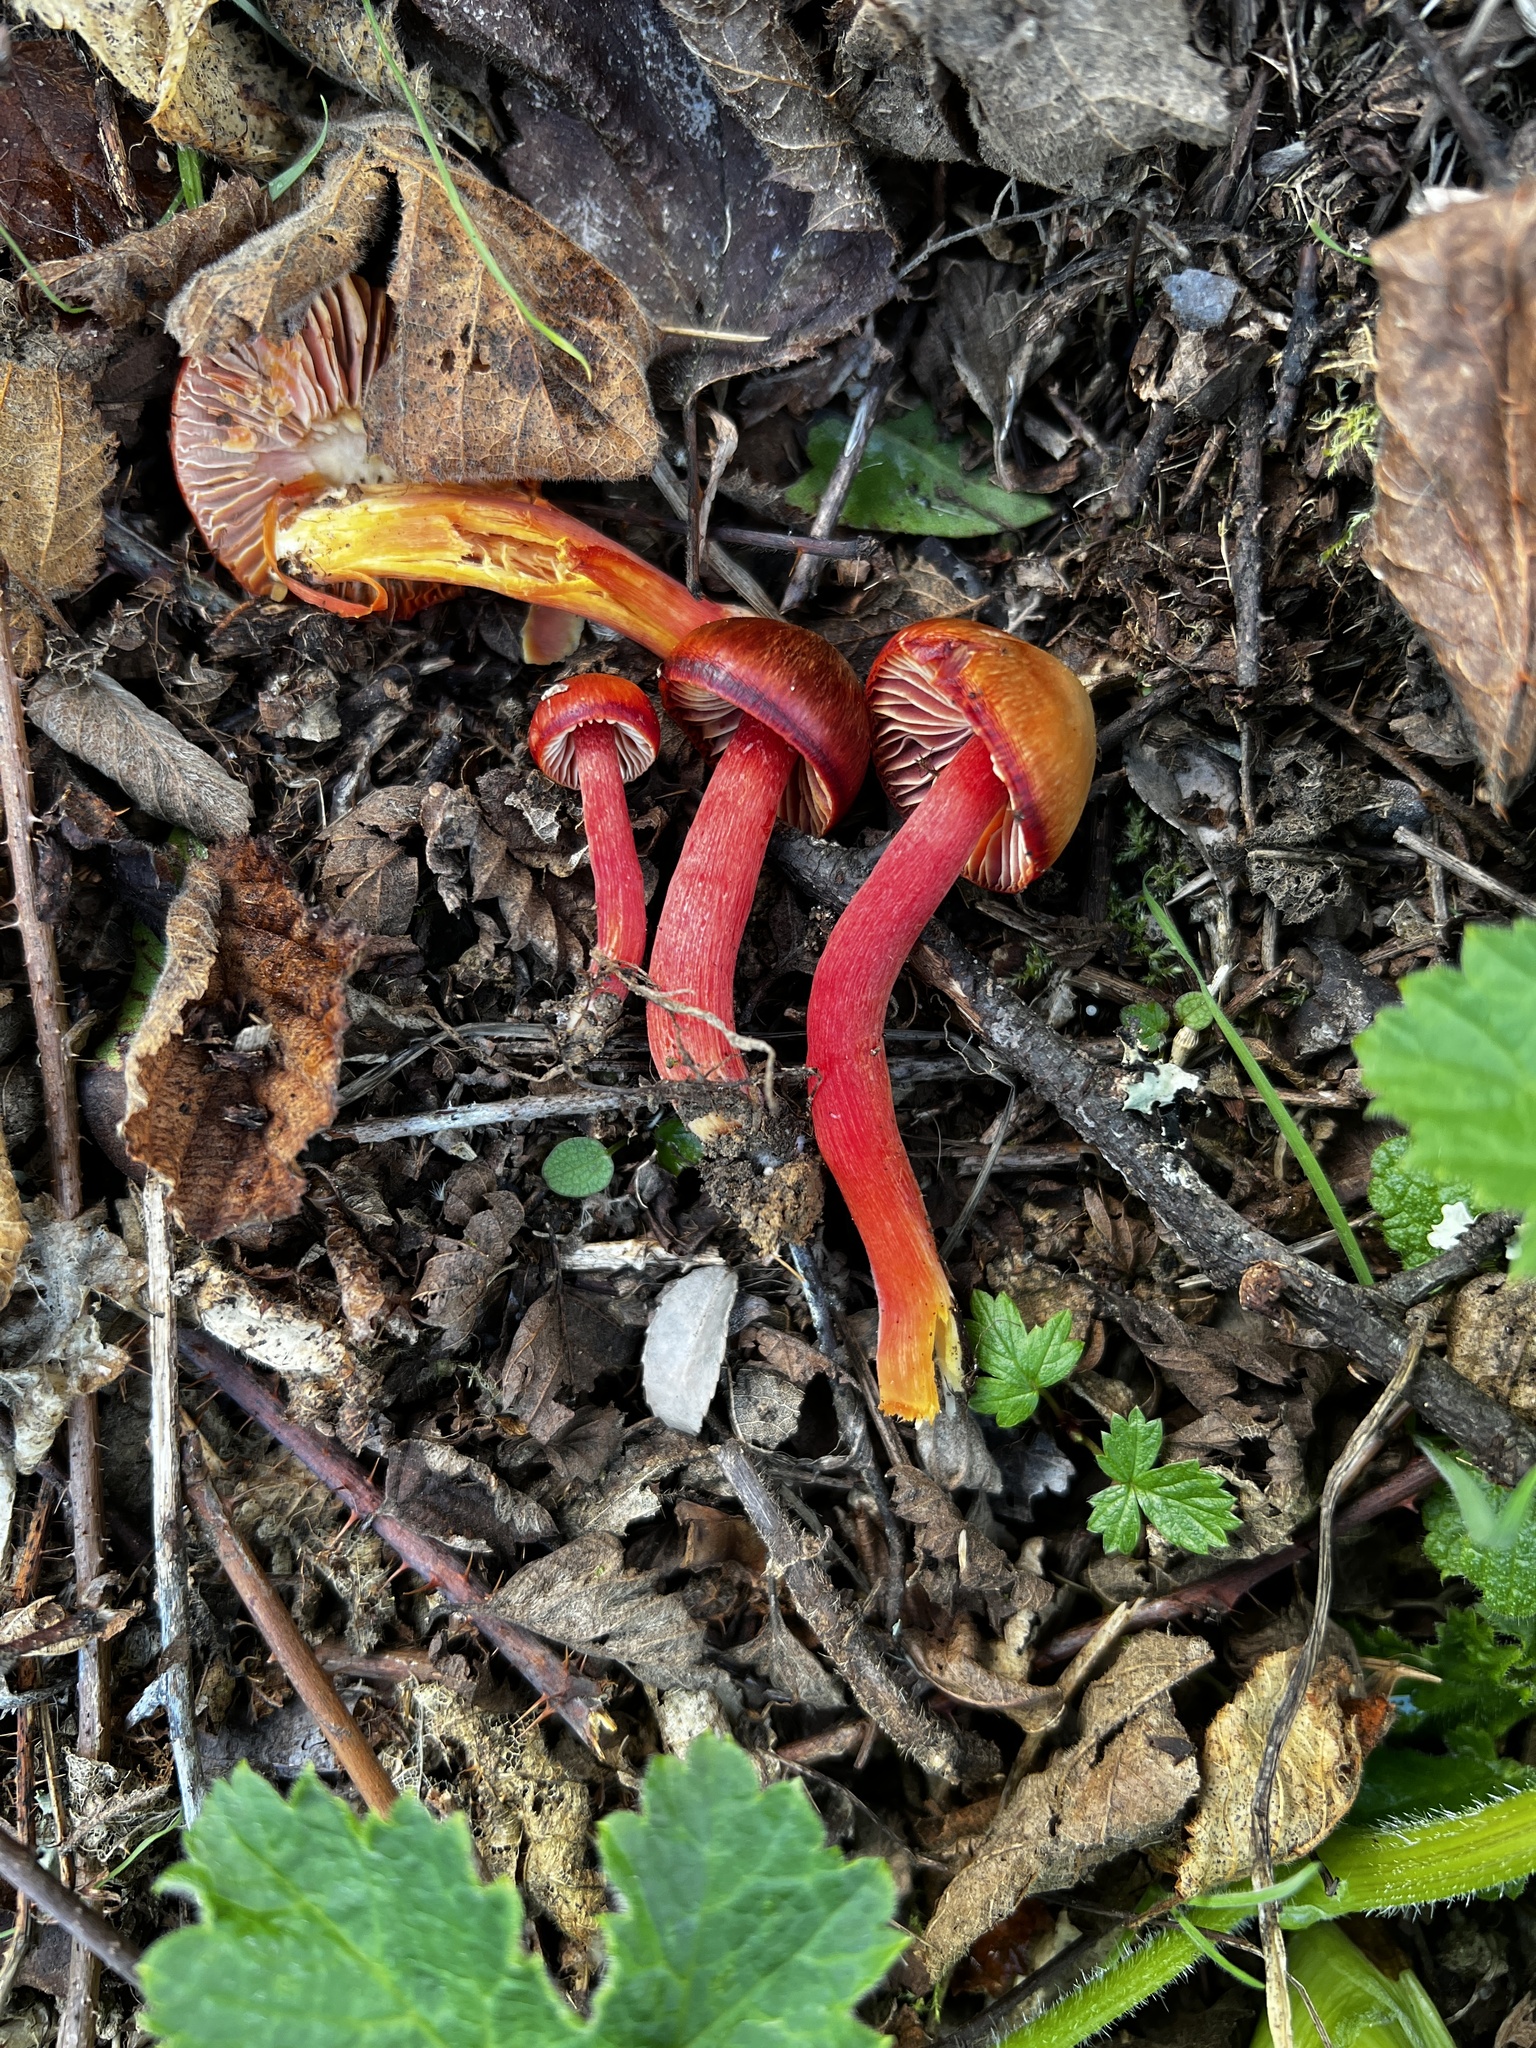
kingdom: Fungi
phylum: Basidiomycota
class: Agaricomycetes
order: Agaricales
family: Hygrophoraceae
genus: Hygrocybe
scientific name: Hygrocybe coccinea
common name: Scarlet hood
